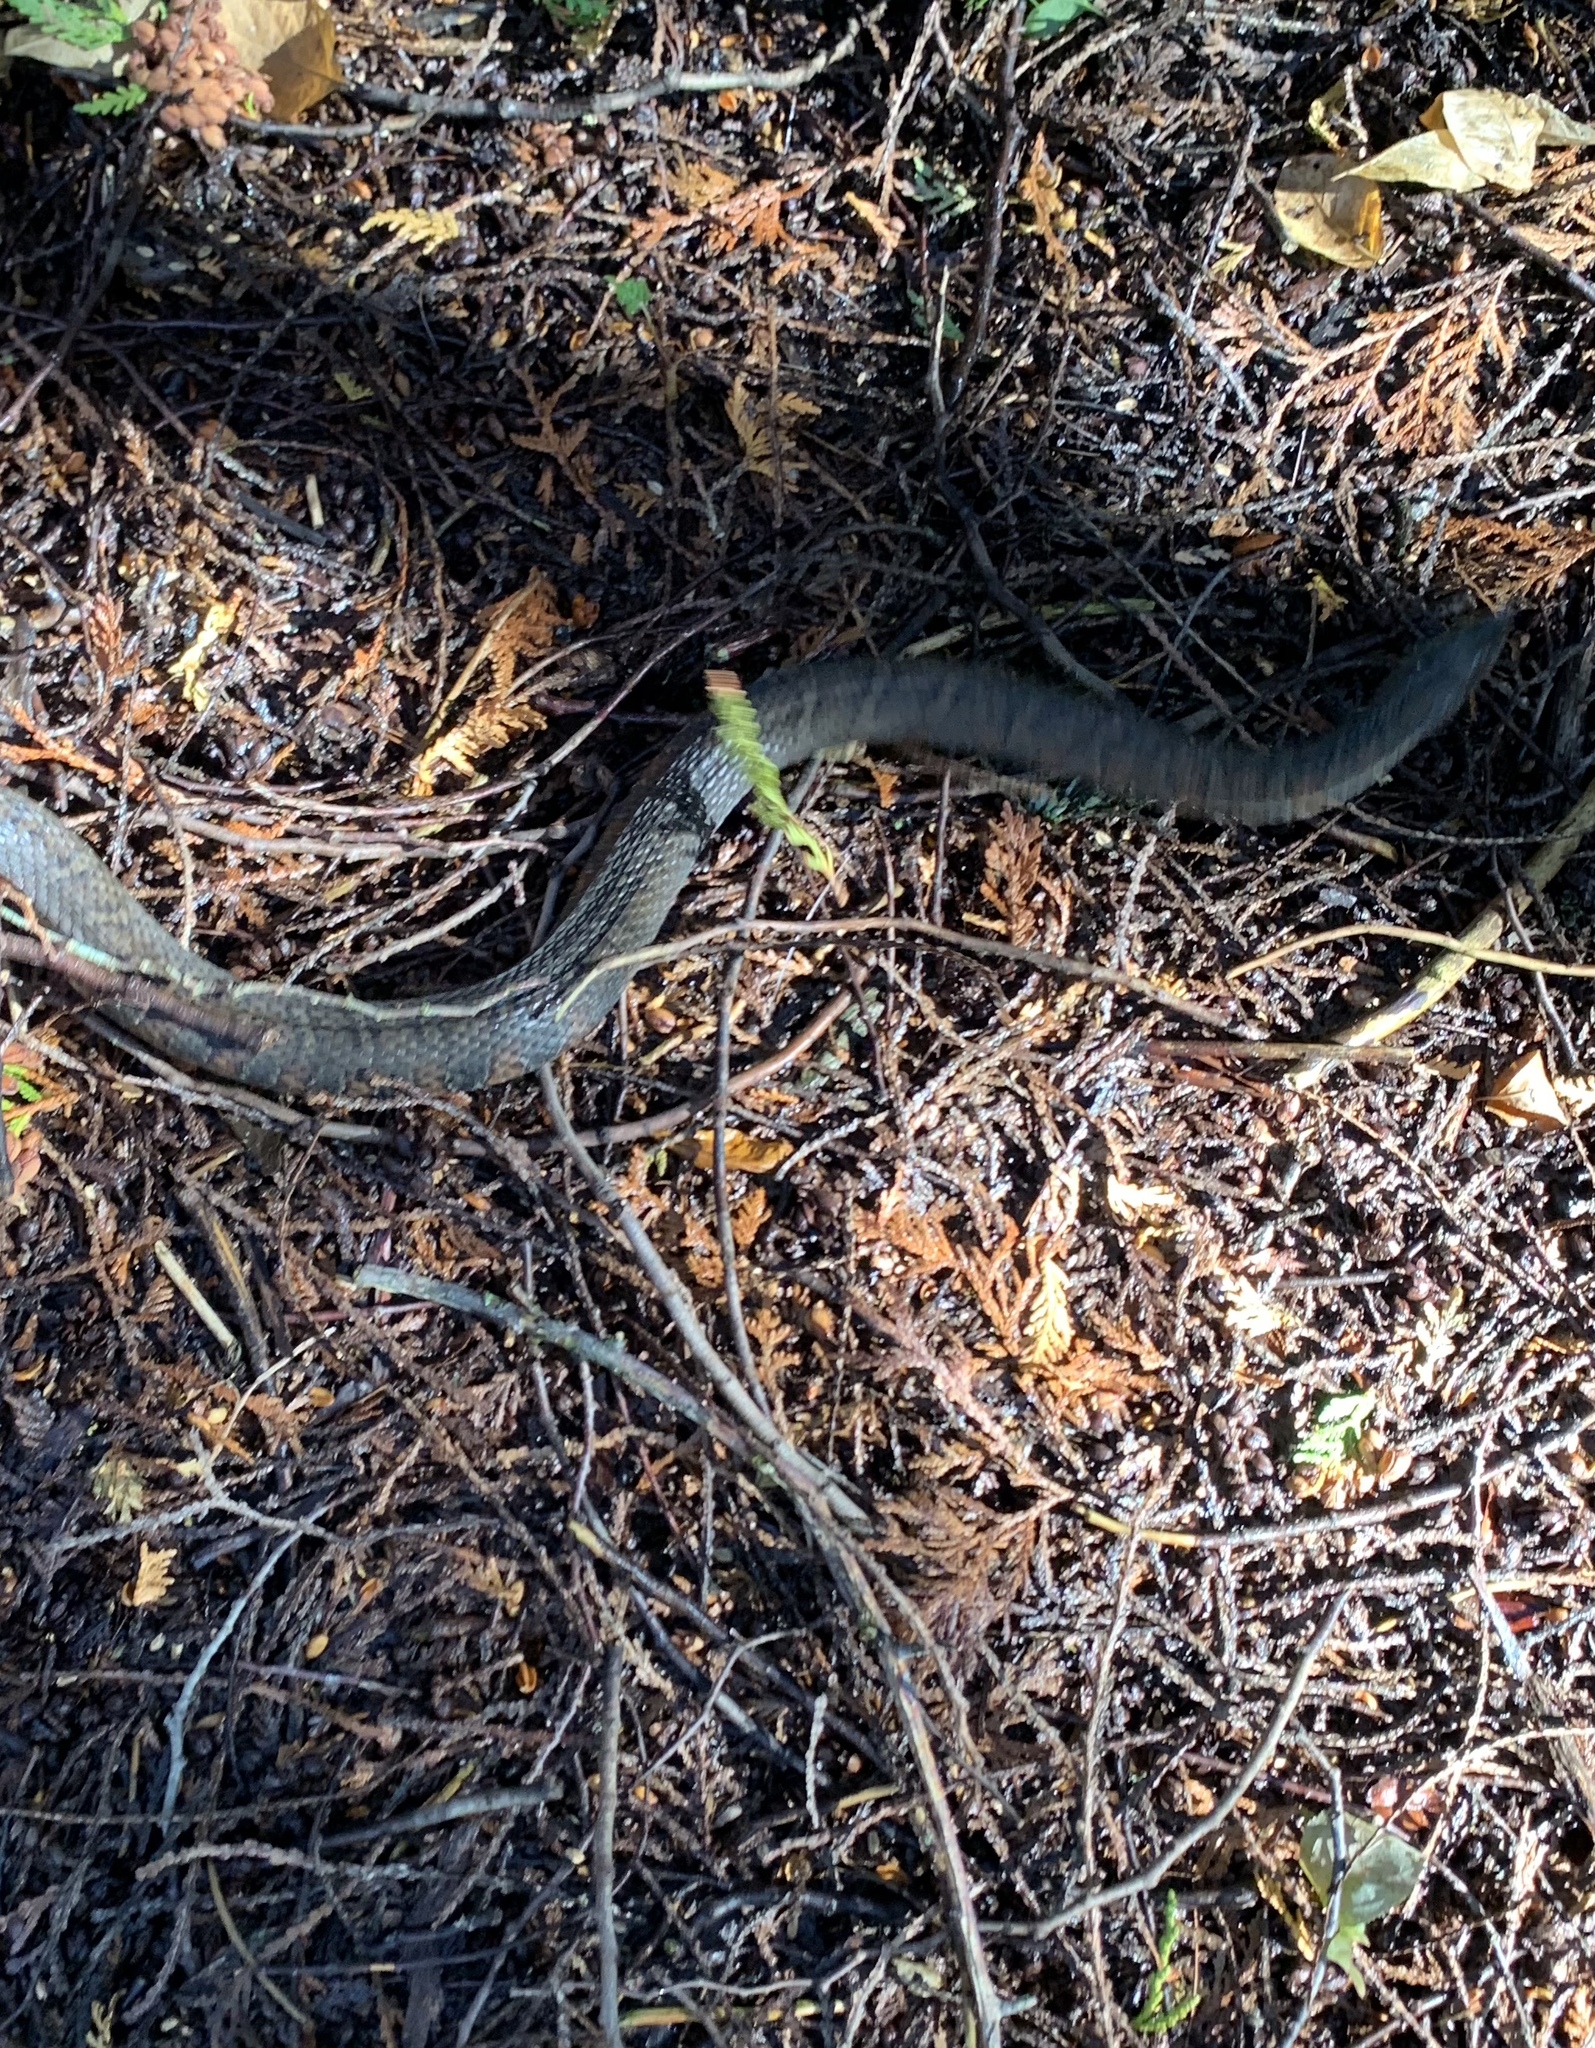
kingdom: Animalia
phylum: Chordata
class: Squamata
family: Colubridae
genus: Nerodia
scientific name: Nerodia sipedon
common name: Northern water snake
